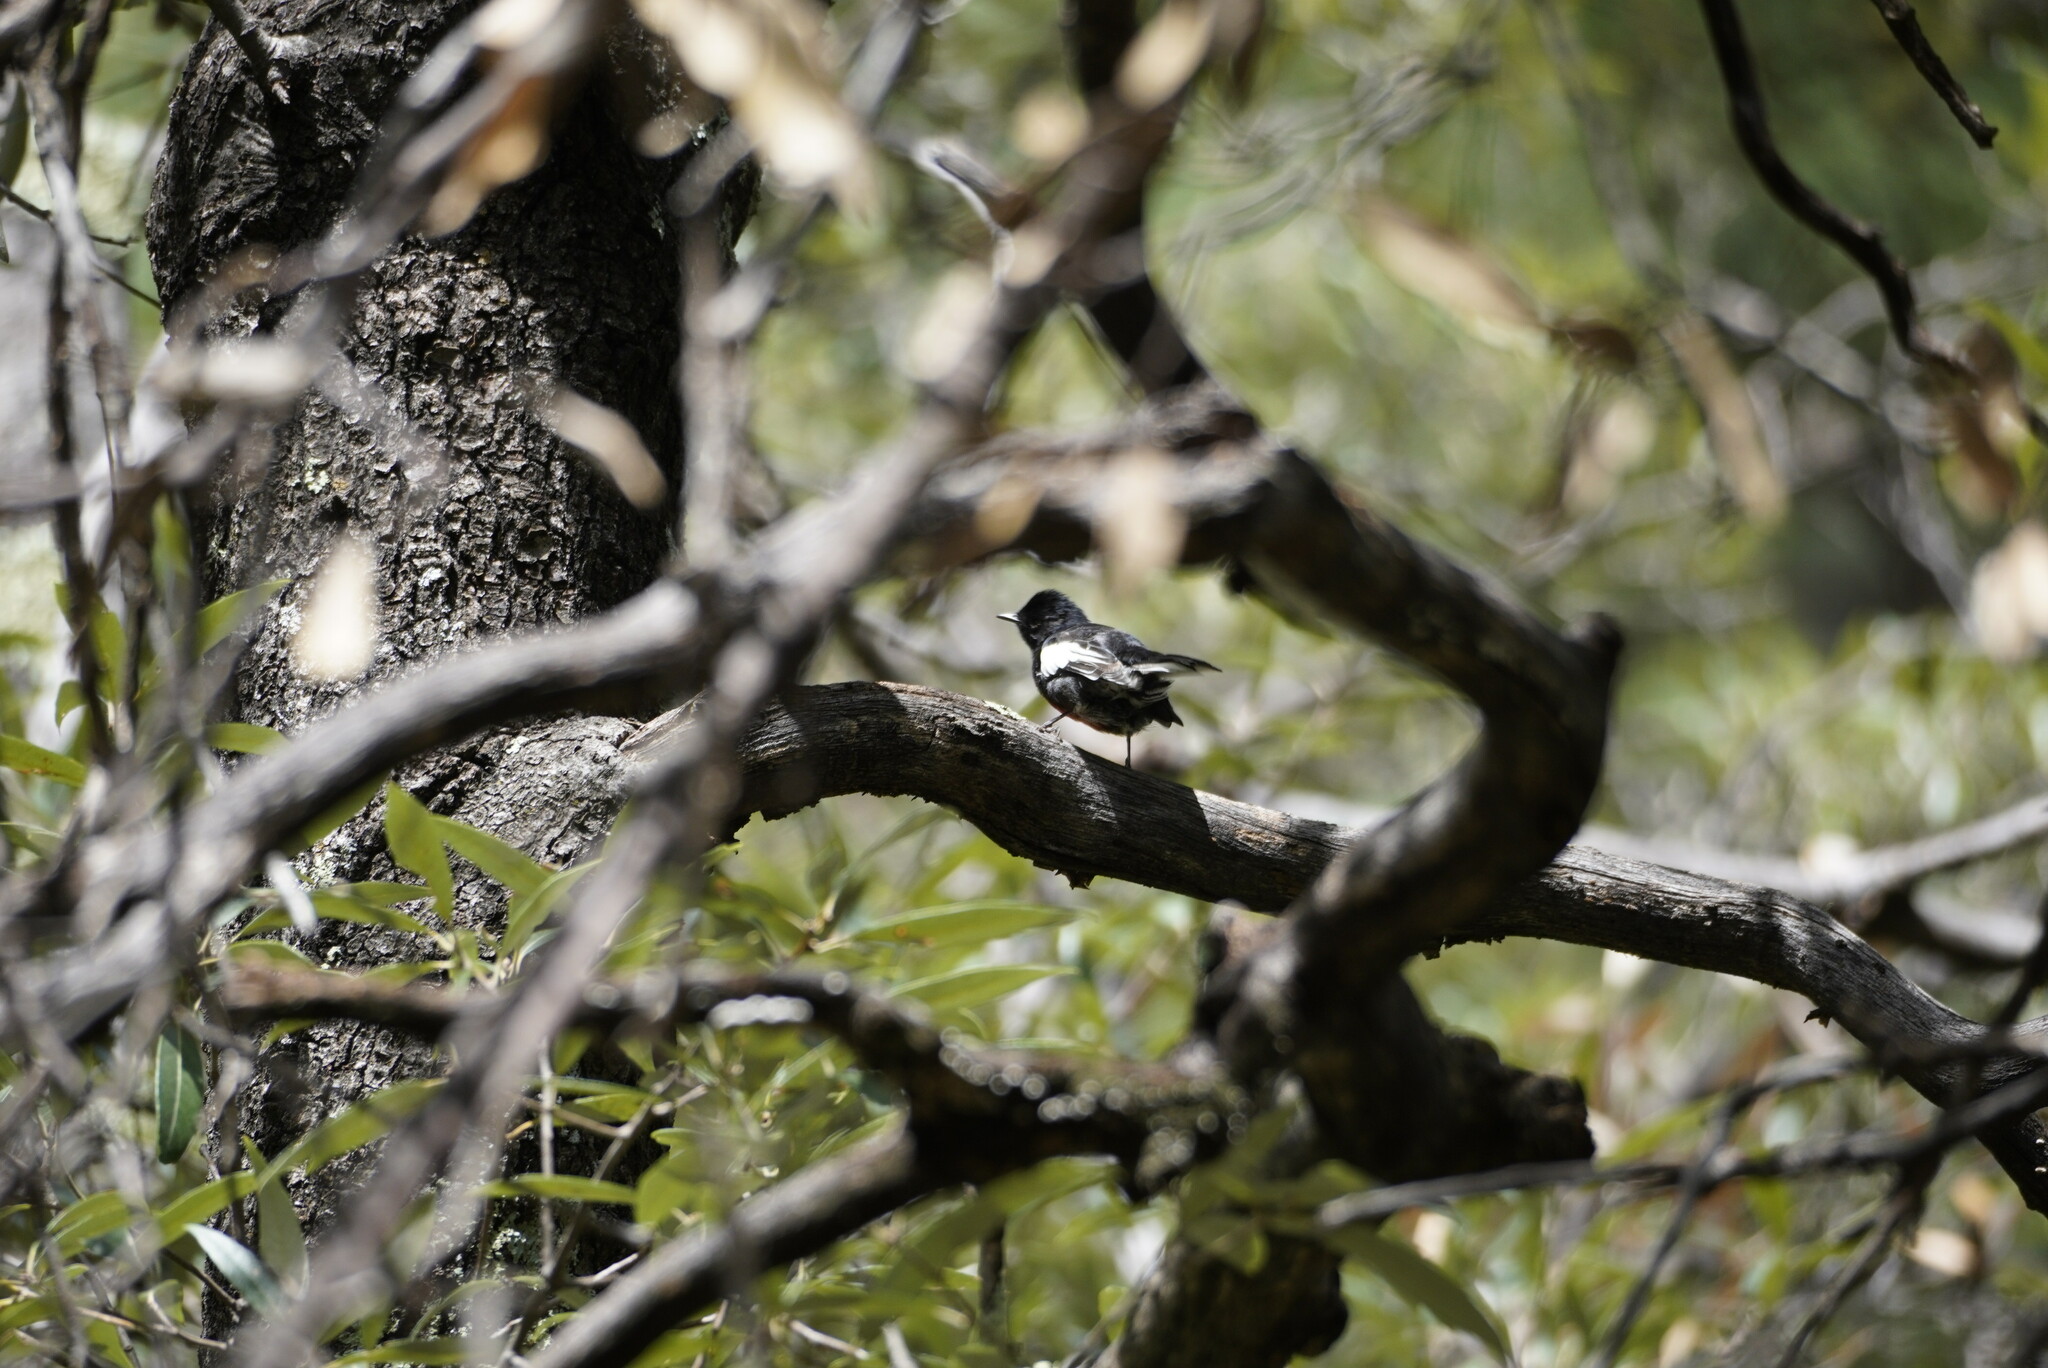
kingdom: Animalia
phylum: Chordata
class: Aves
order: Passeriformes
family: Parulidae
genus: Myioborus
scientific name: Myioborus pictus
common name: Painted whitestart
